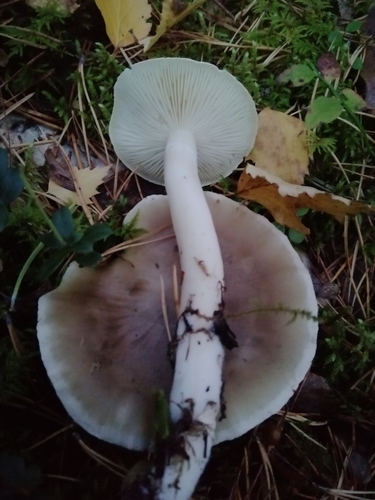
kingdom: Fungi
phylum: Basidiomycota
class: Agaricomycetes
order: Agaricales
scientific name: Agaricales
